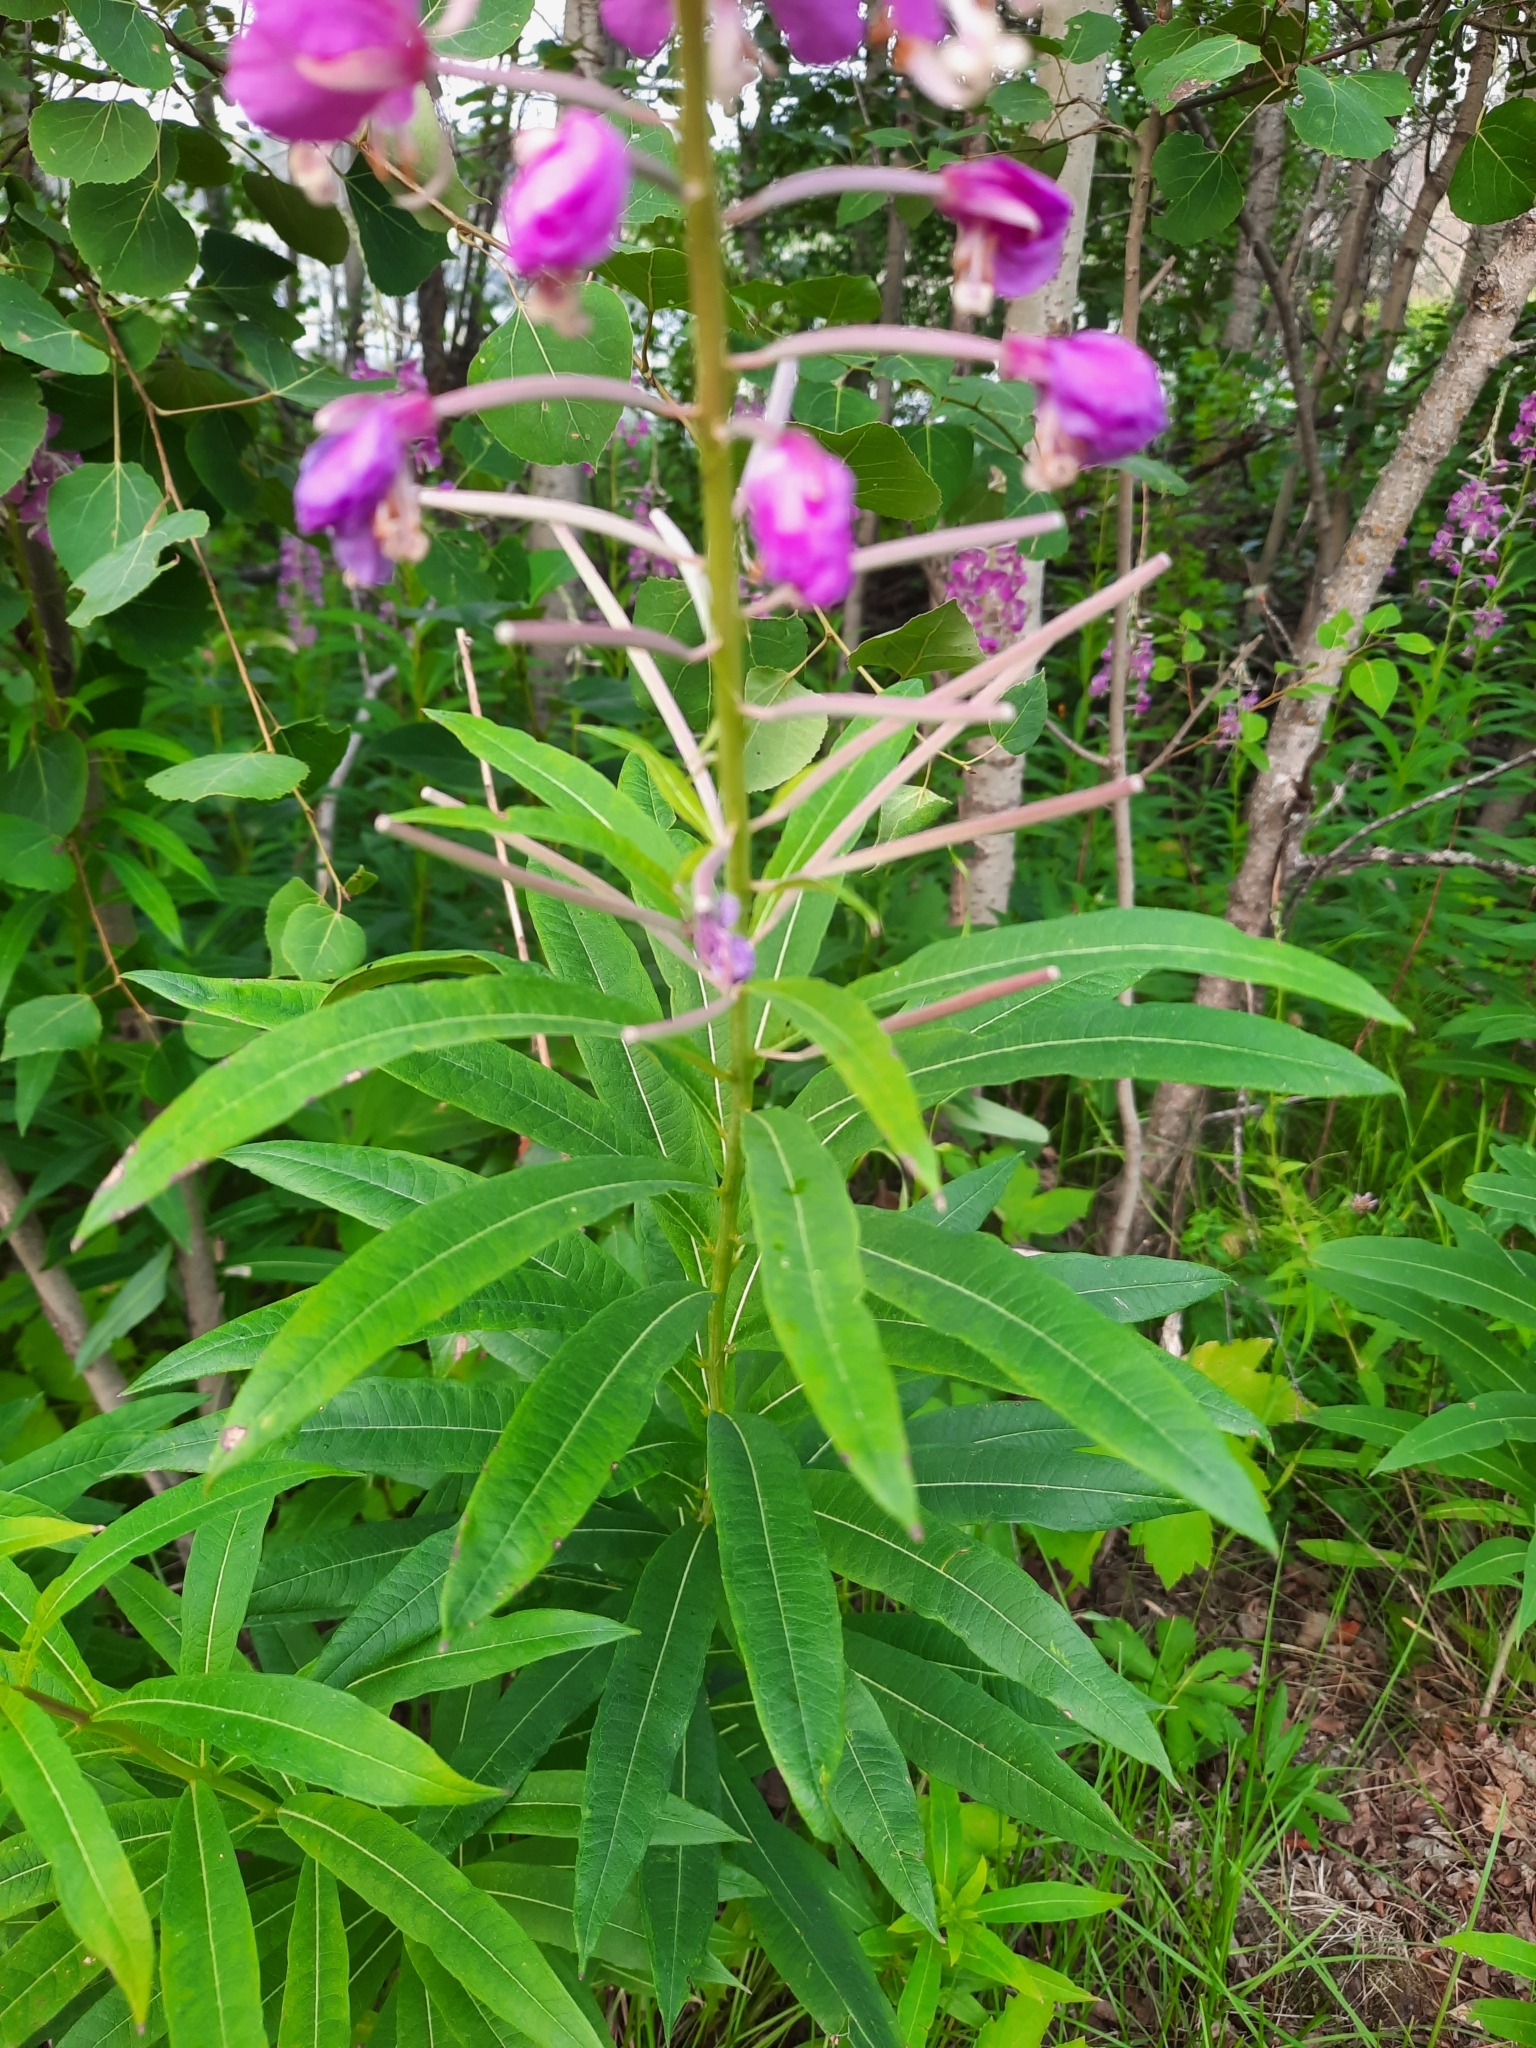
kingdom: Plantae
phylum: Tracheophyta
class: Magnoliopsida
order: Myrtales
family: Onagraceae
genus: Chamaenerion
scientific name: Chamaenerion angustifolium
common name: Fireweed
